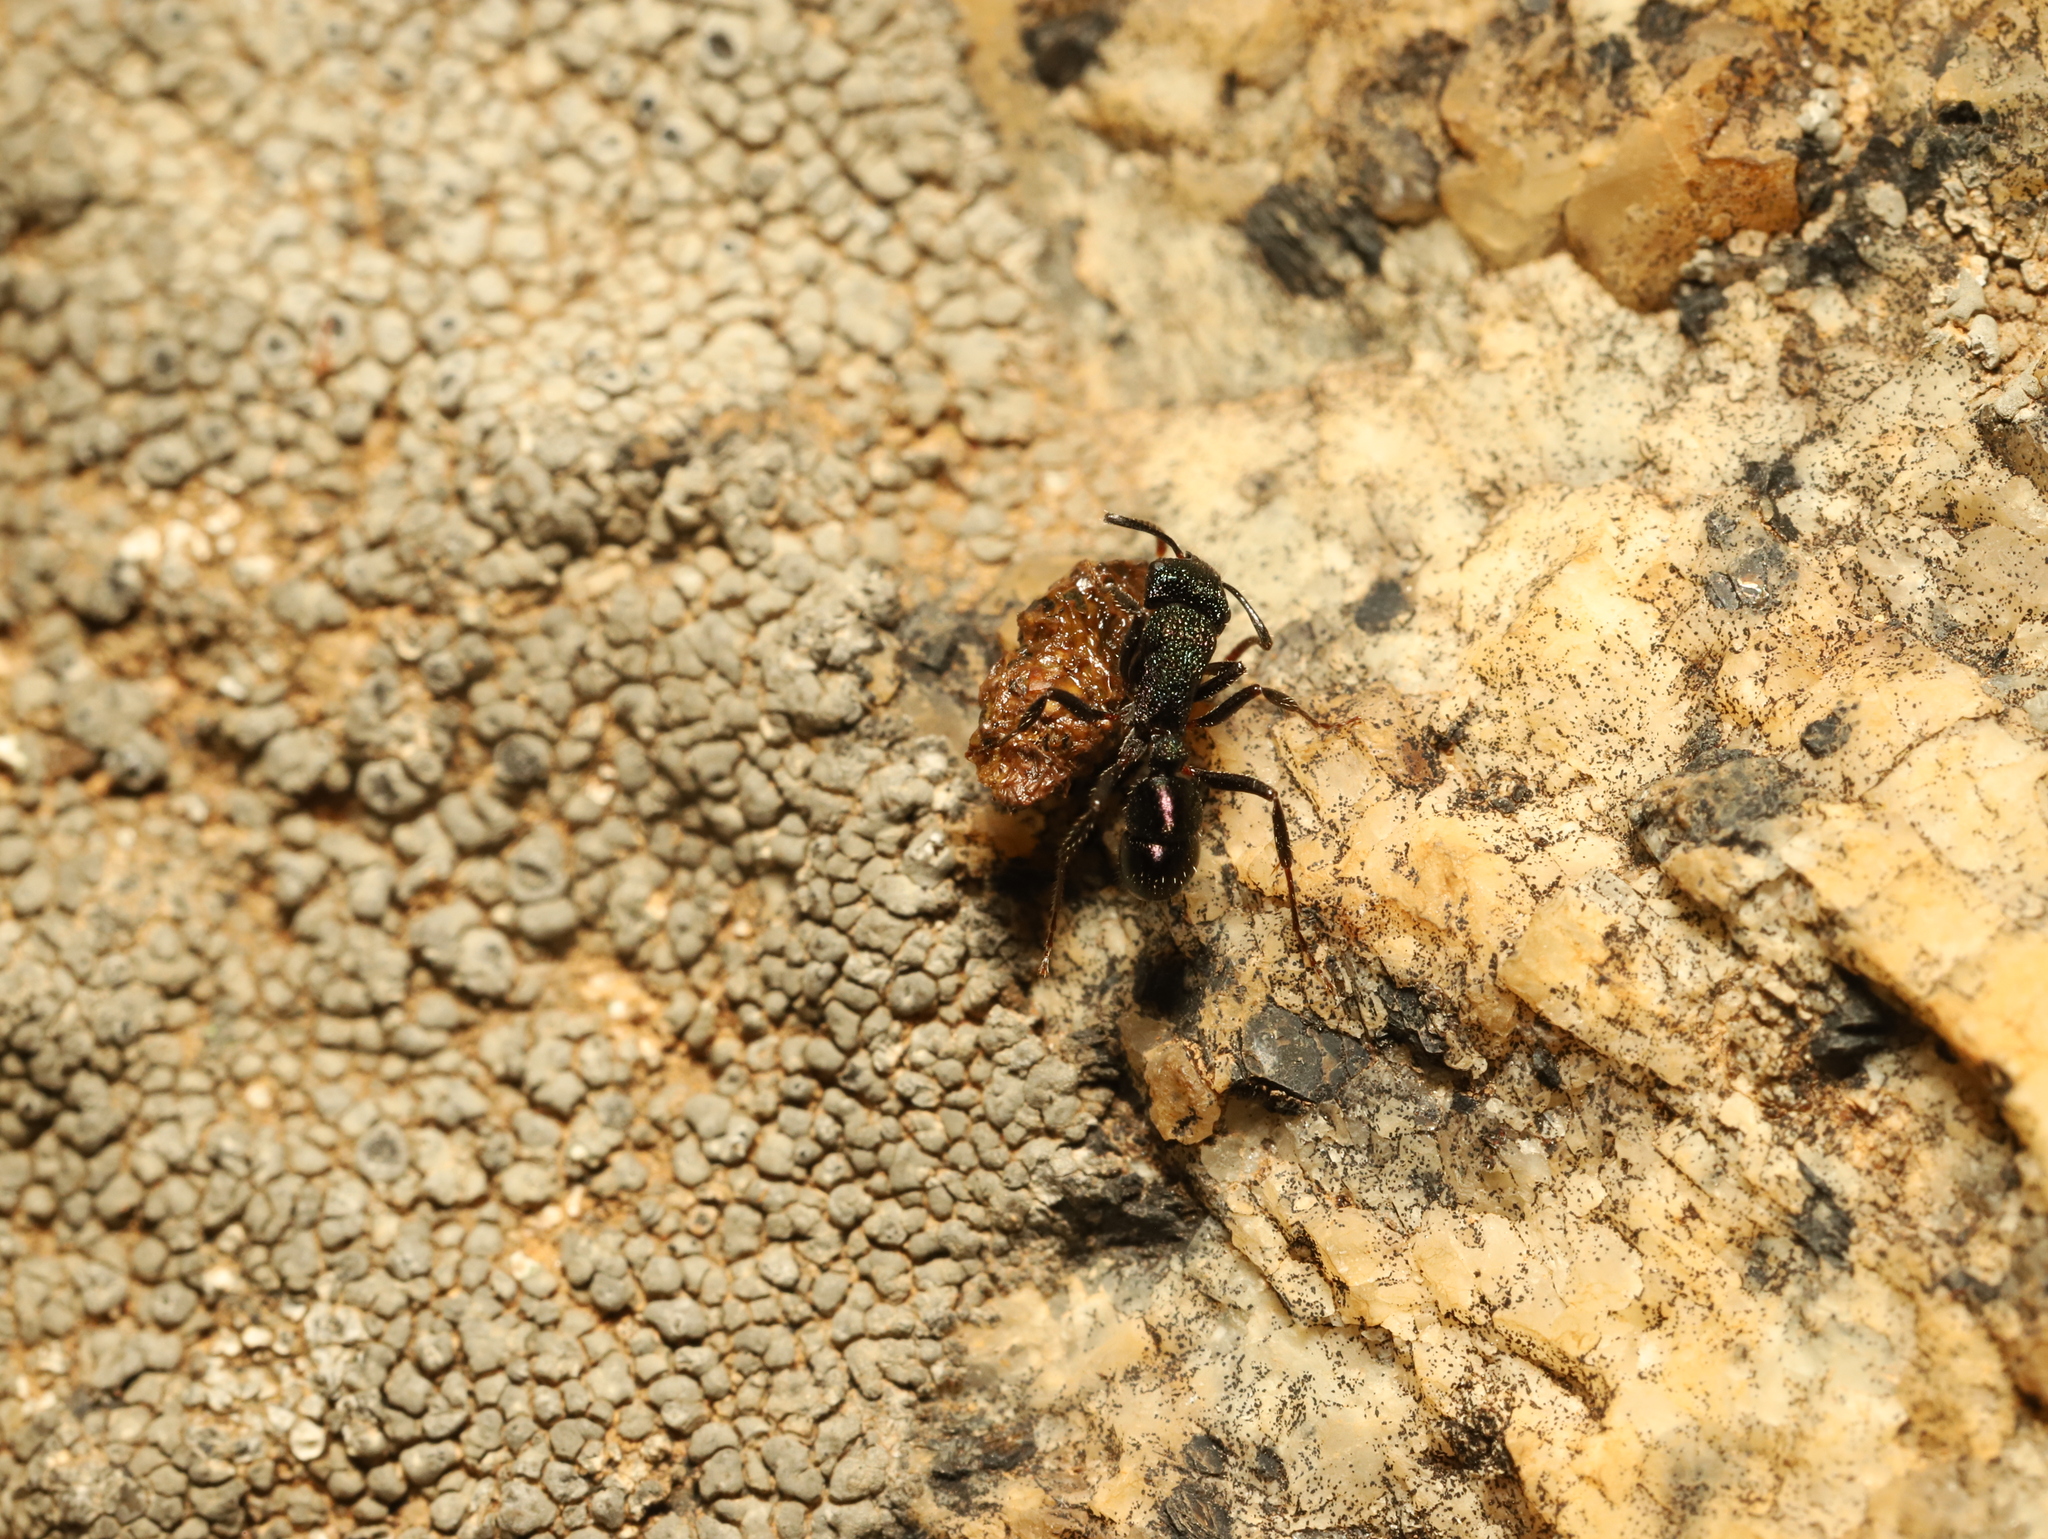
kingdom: Animalia
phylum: Arthropoda
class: Insecta
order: Hymenoptera
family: Formicidae
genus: Rhytidoponera
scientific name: Rhytidoponera metallica
